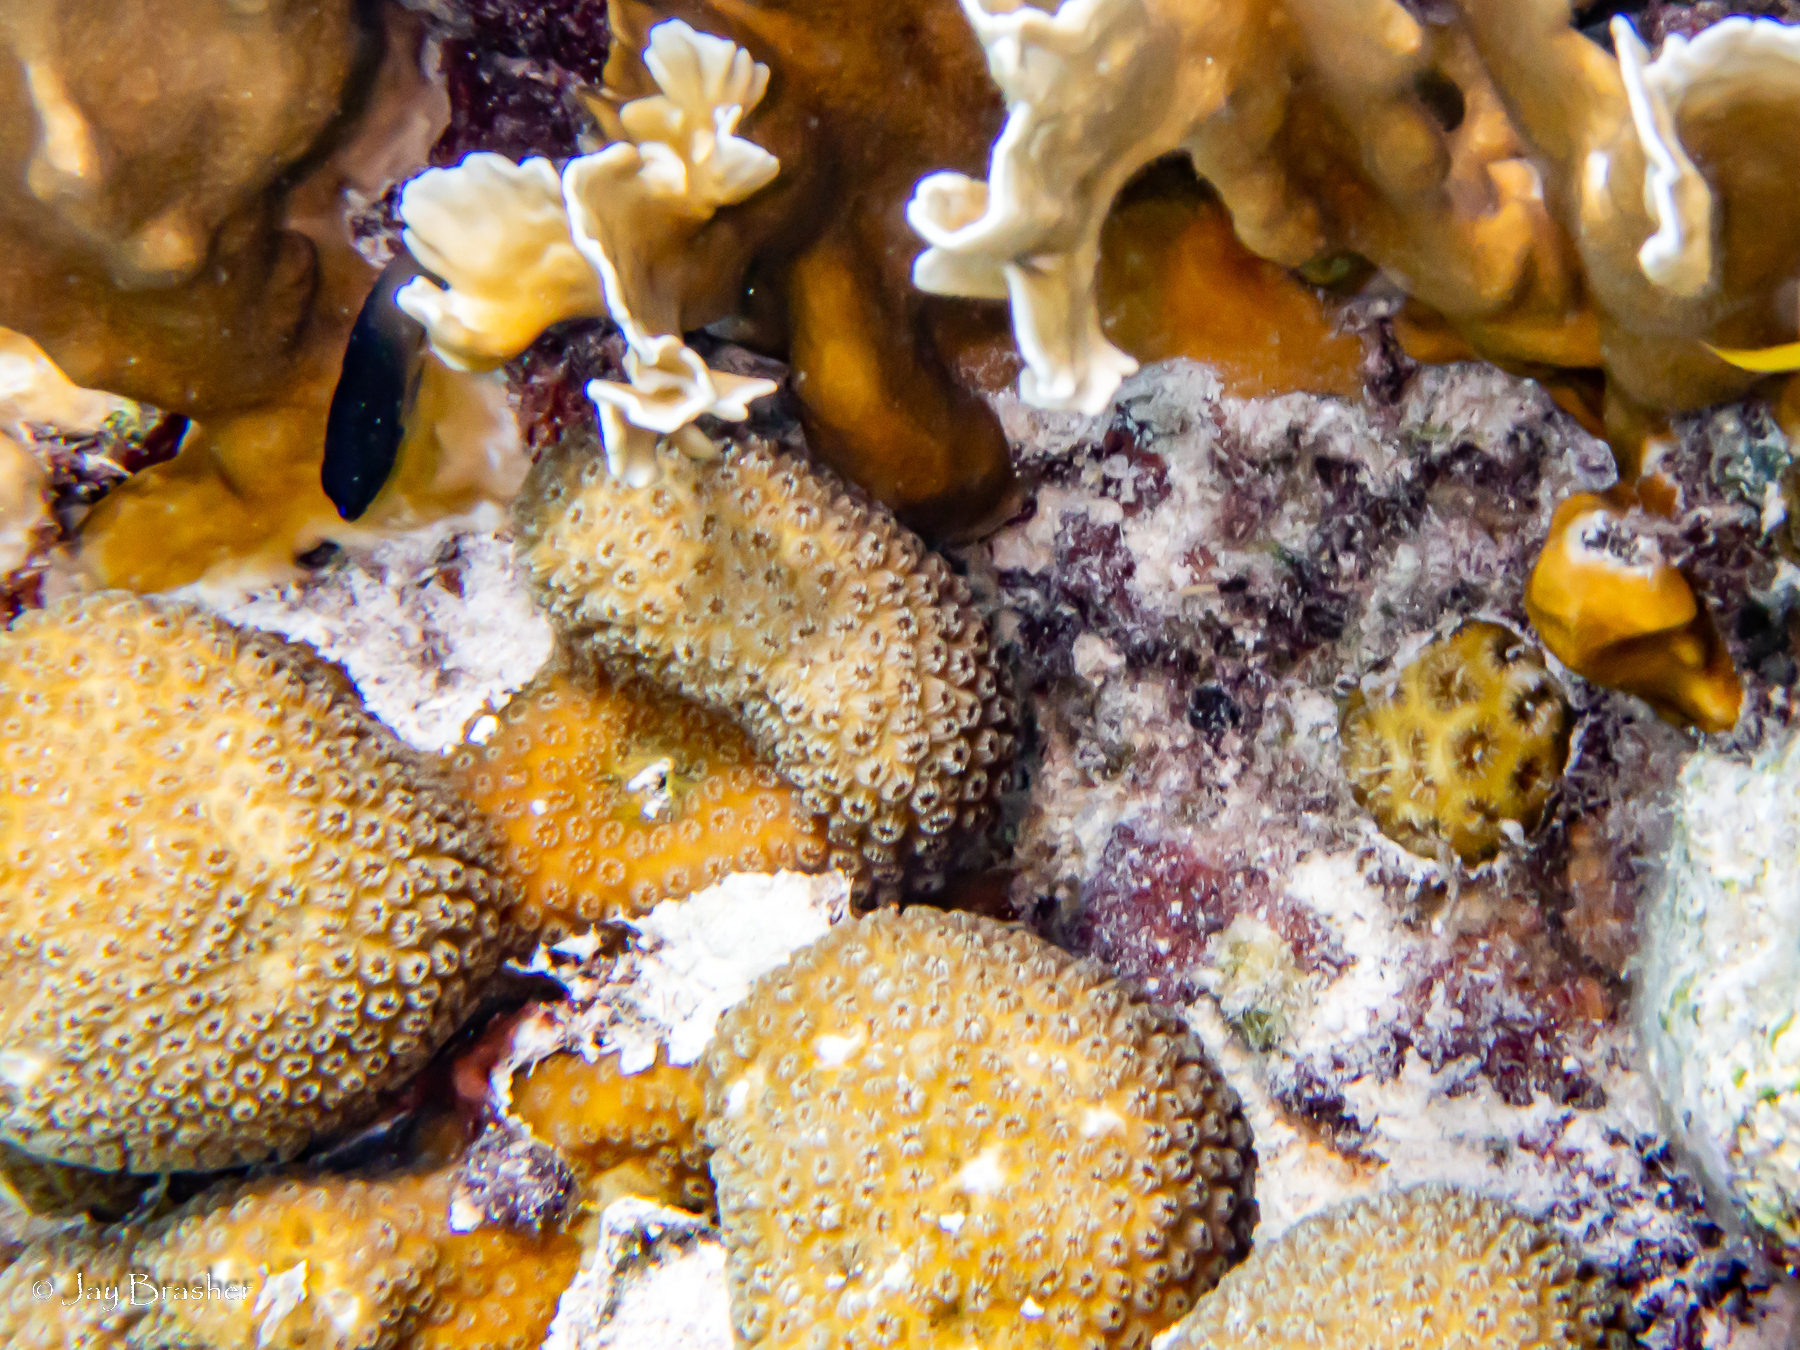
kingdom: Animalia
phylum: Cnidaria
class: Anthozoa
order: Scleractinia
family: Faviidae
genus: Favia
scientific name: Favia fragum
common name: Golfball coral
